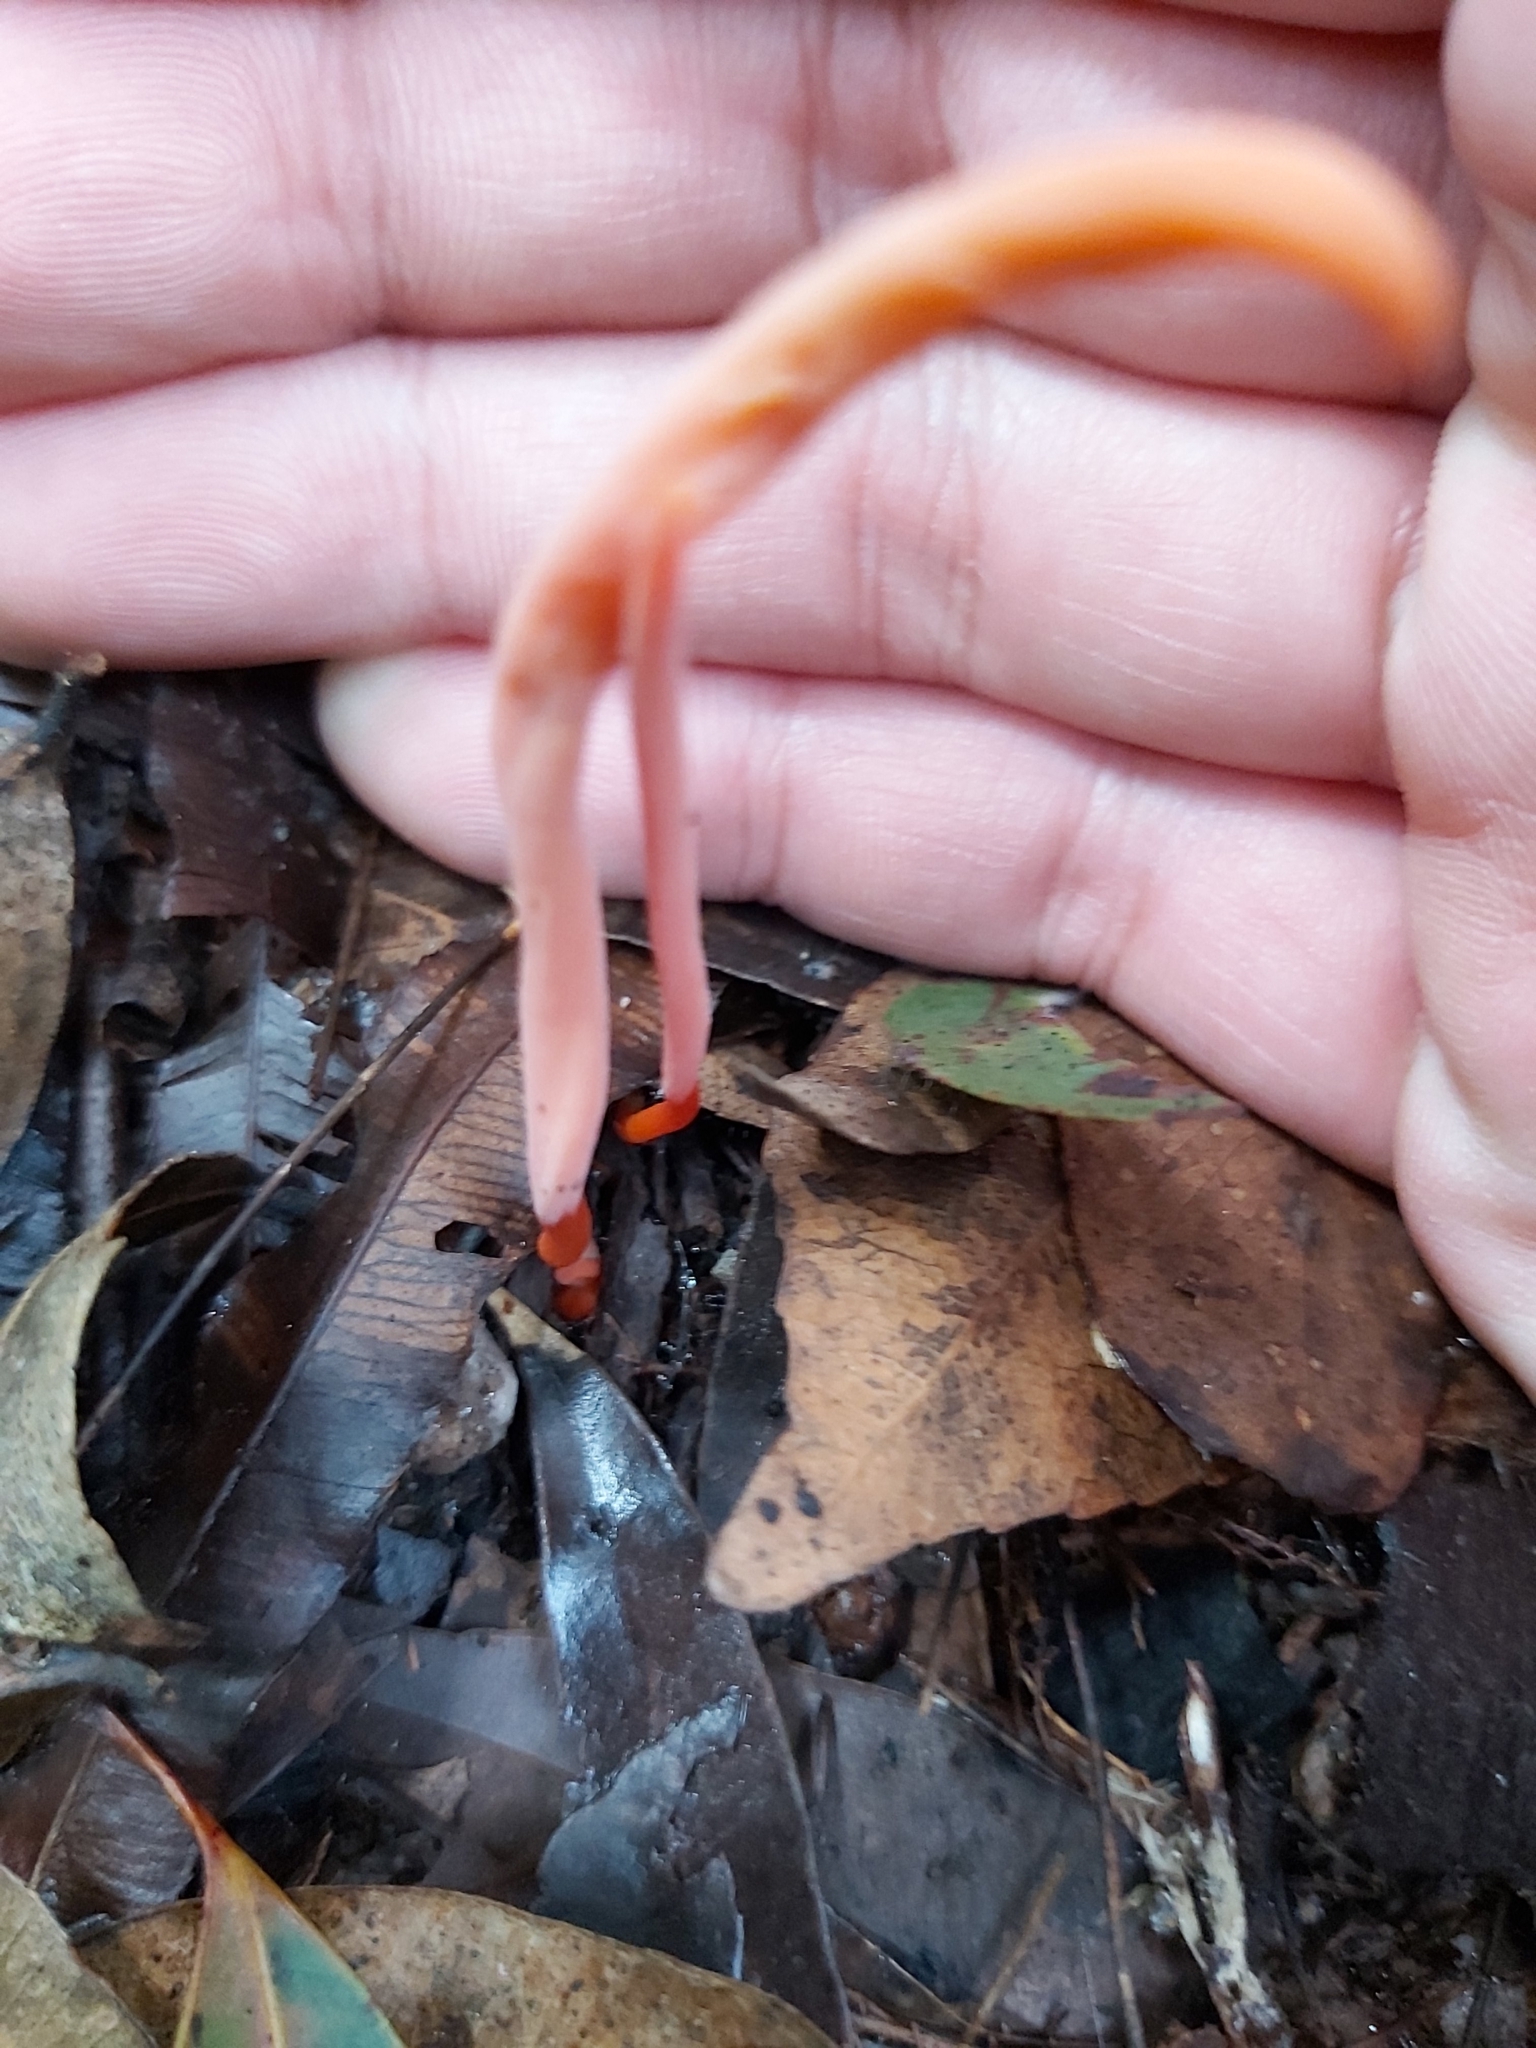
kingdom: Fungi
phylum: Basidiomycota
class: Agaricomycetes
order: Agaricales
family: Clavariaceae
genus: Clavulinopsis
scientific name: Clavulinopsis corallinorosacea
